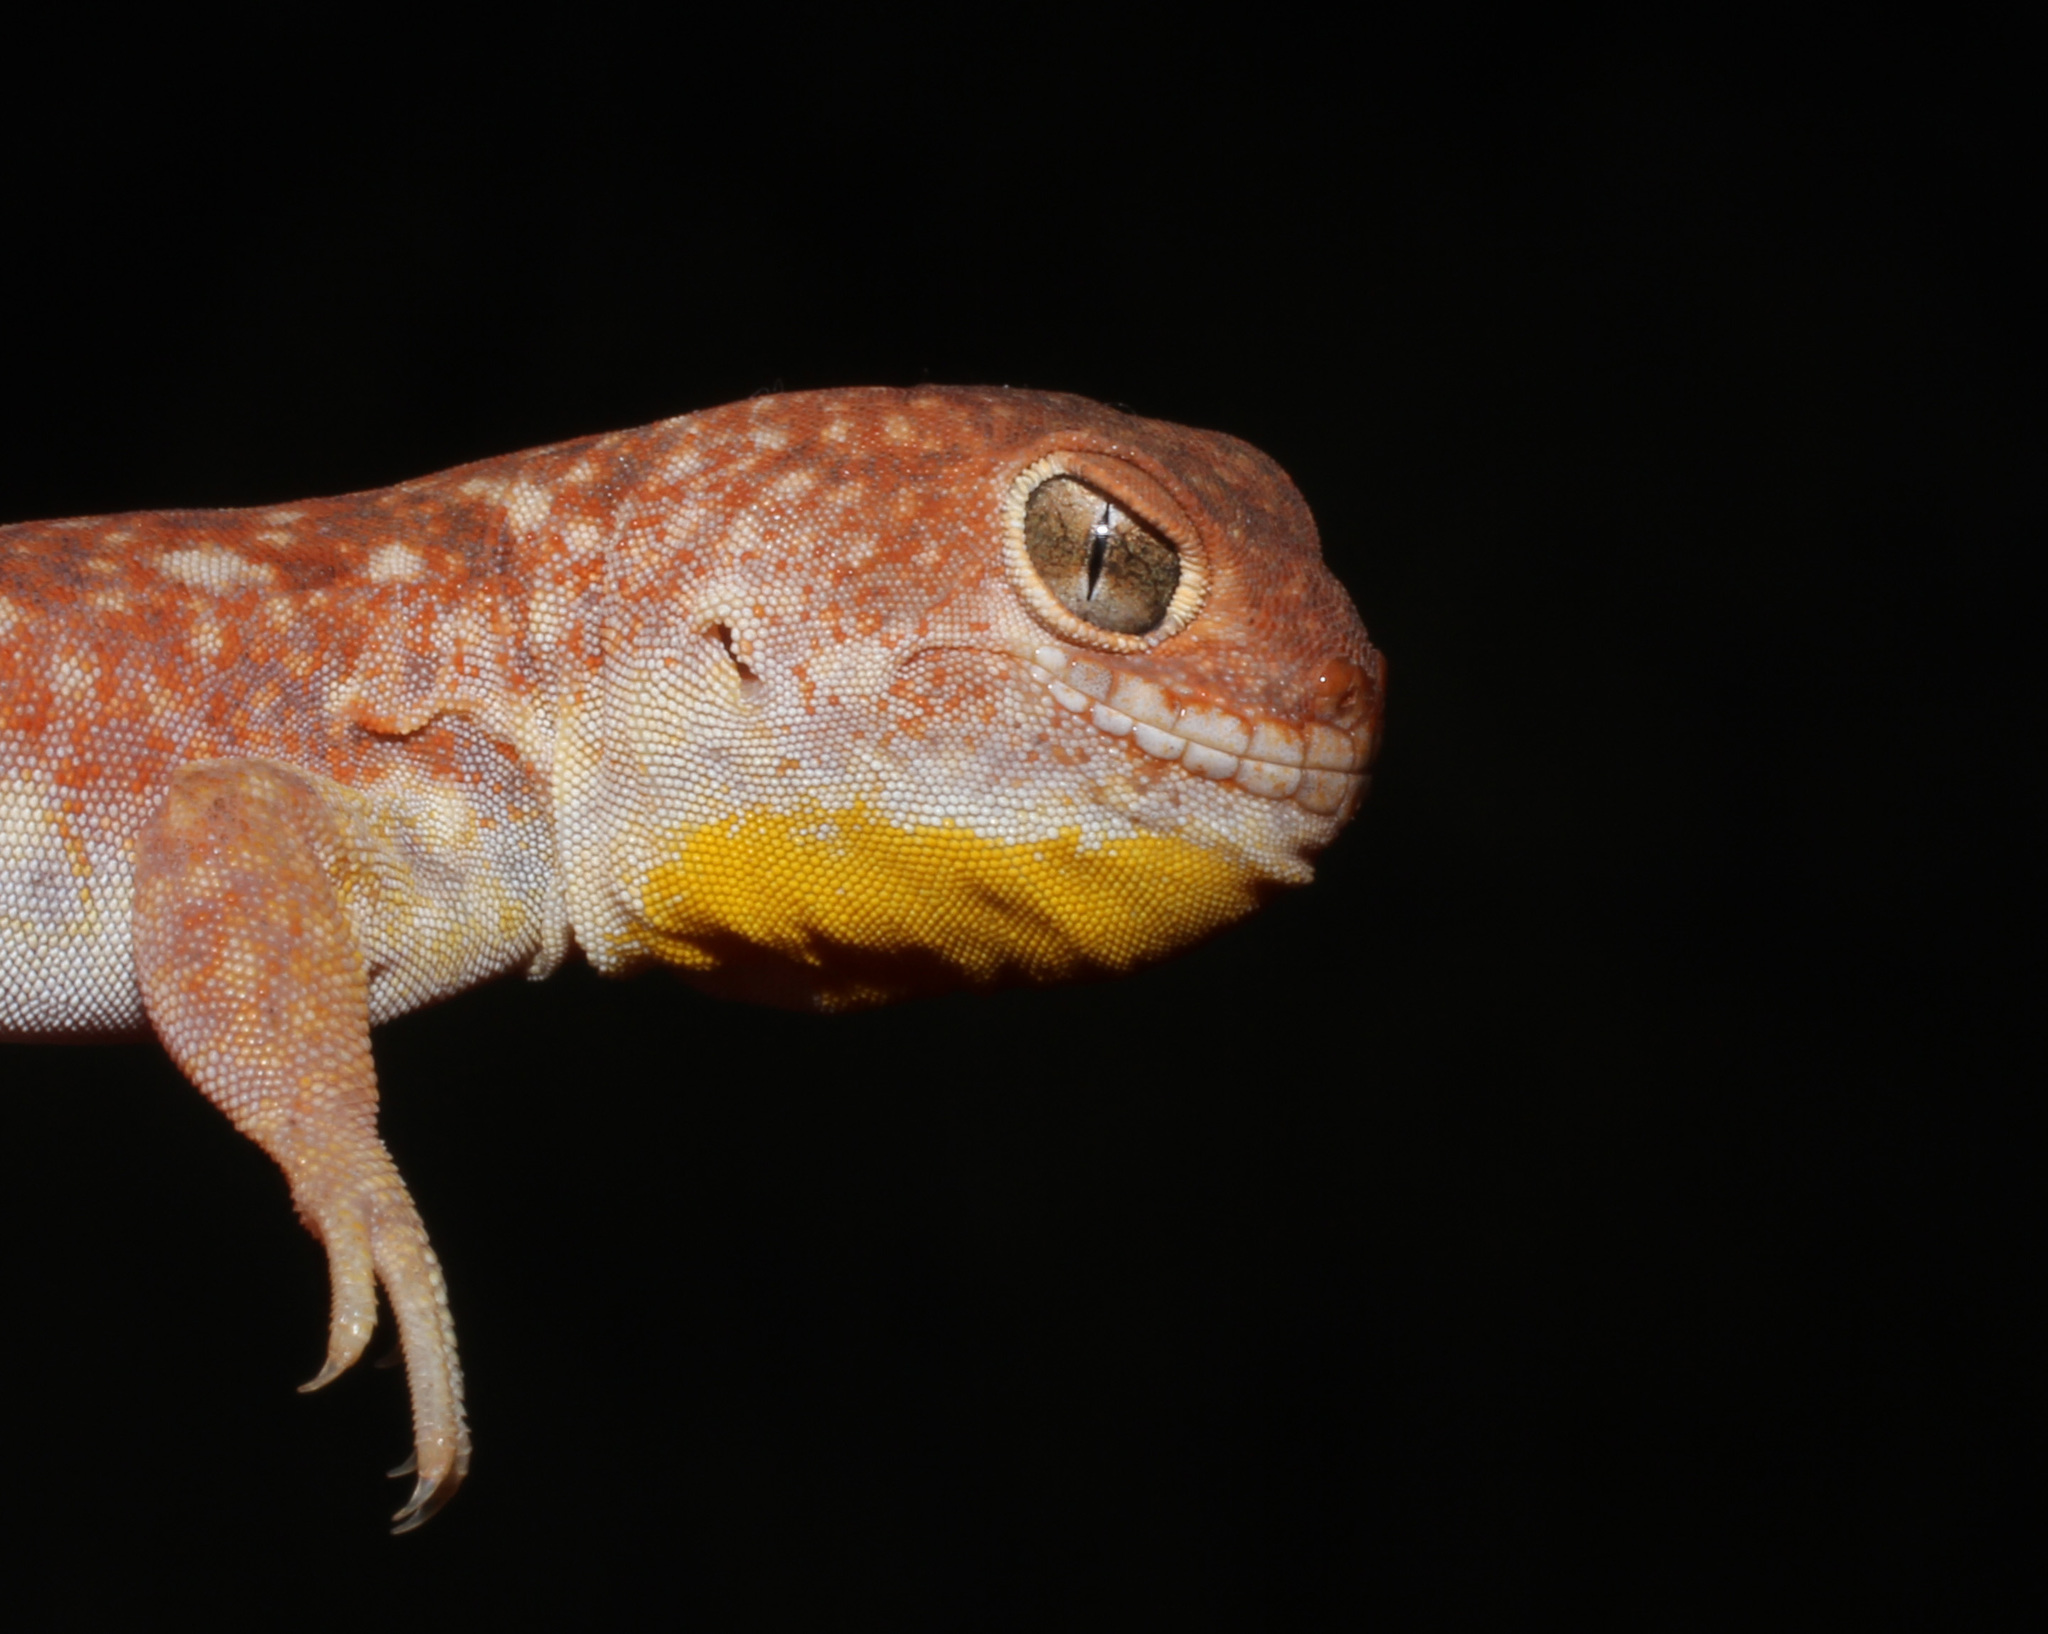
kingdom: Animalia
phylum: Chordata
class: Squamata
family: Gekkonidae
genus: Ptenopus
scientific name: Ptenopus garrulus
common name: Whistling gecko
